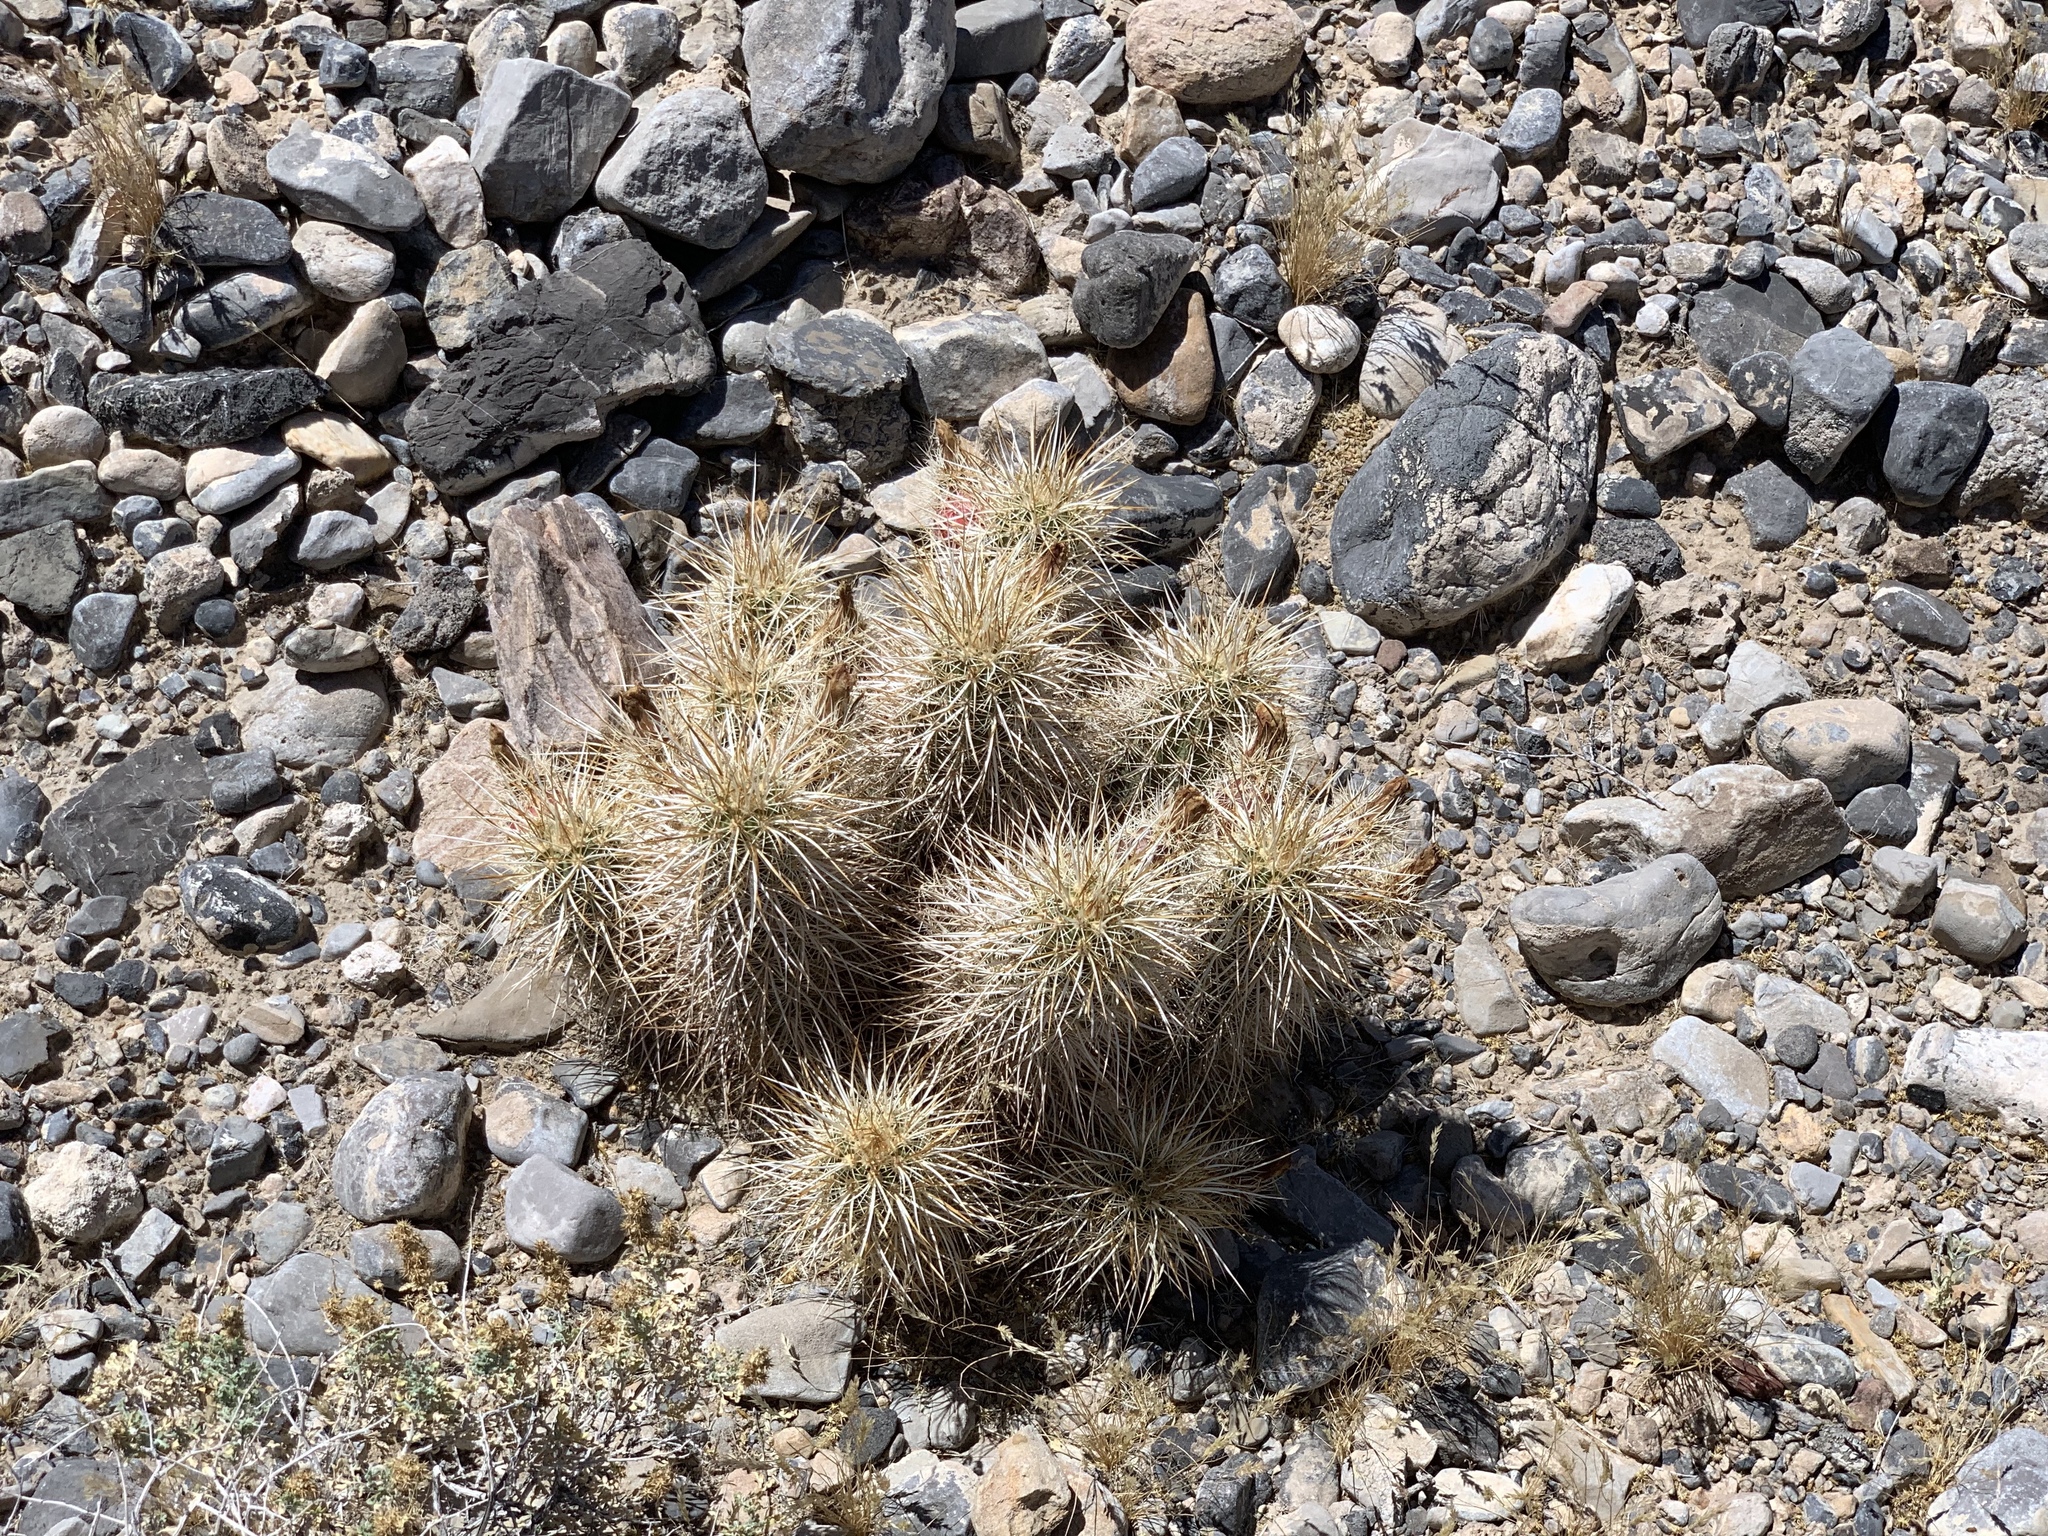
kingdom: Plantae
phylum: Tracheophyta
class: Magnoliopsida
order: Caryophyllales
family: Cactaceae
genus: Echinocereus
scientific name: Echinocereus engelmannii
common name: Engelmann's hedgehog cactus
